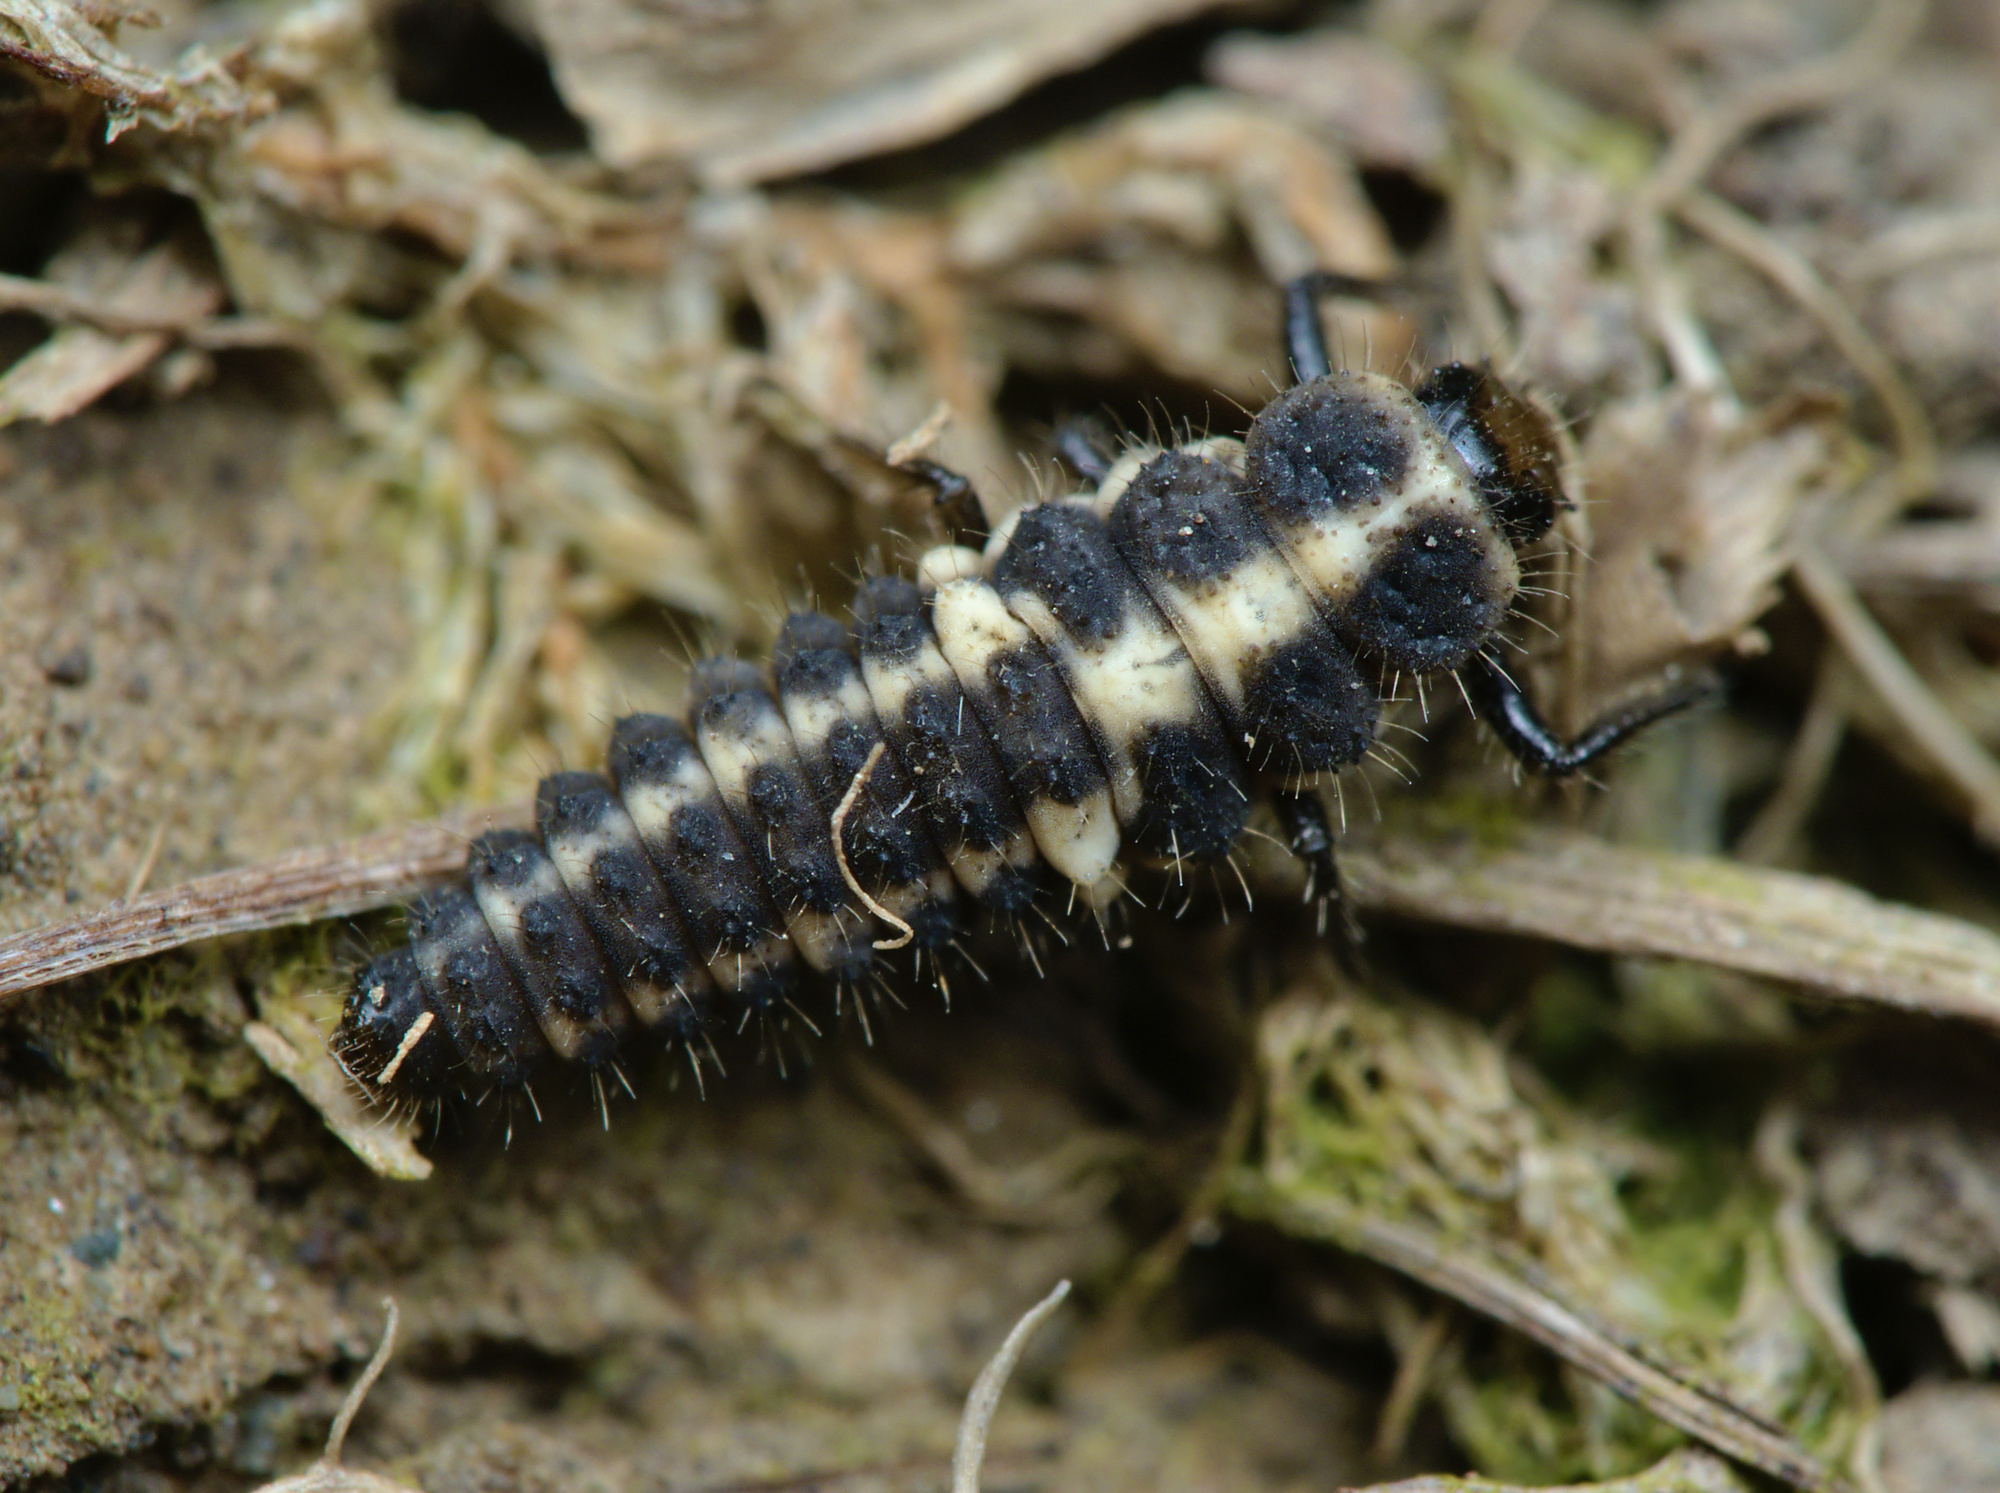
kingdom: Animalia
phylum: Arthropoda
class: Insecta
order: Coleoptera
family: Coccinellidae
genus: Coccinula
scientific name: Coccinula quatuordecimpustulata
